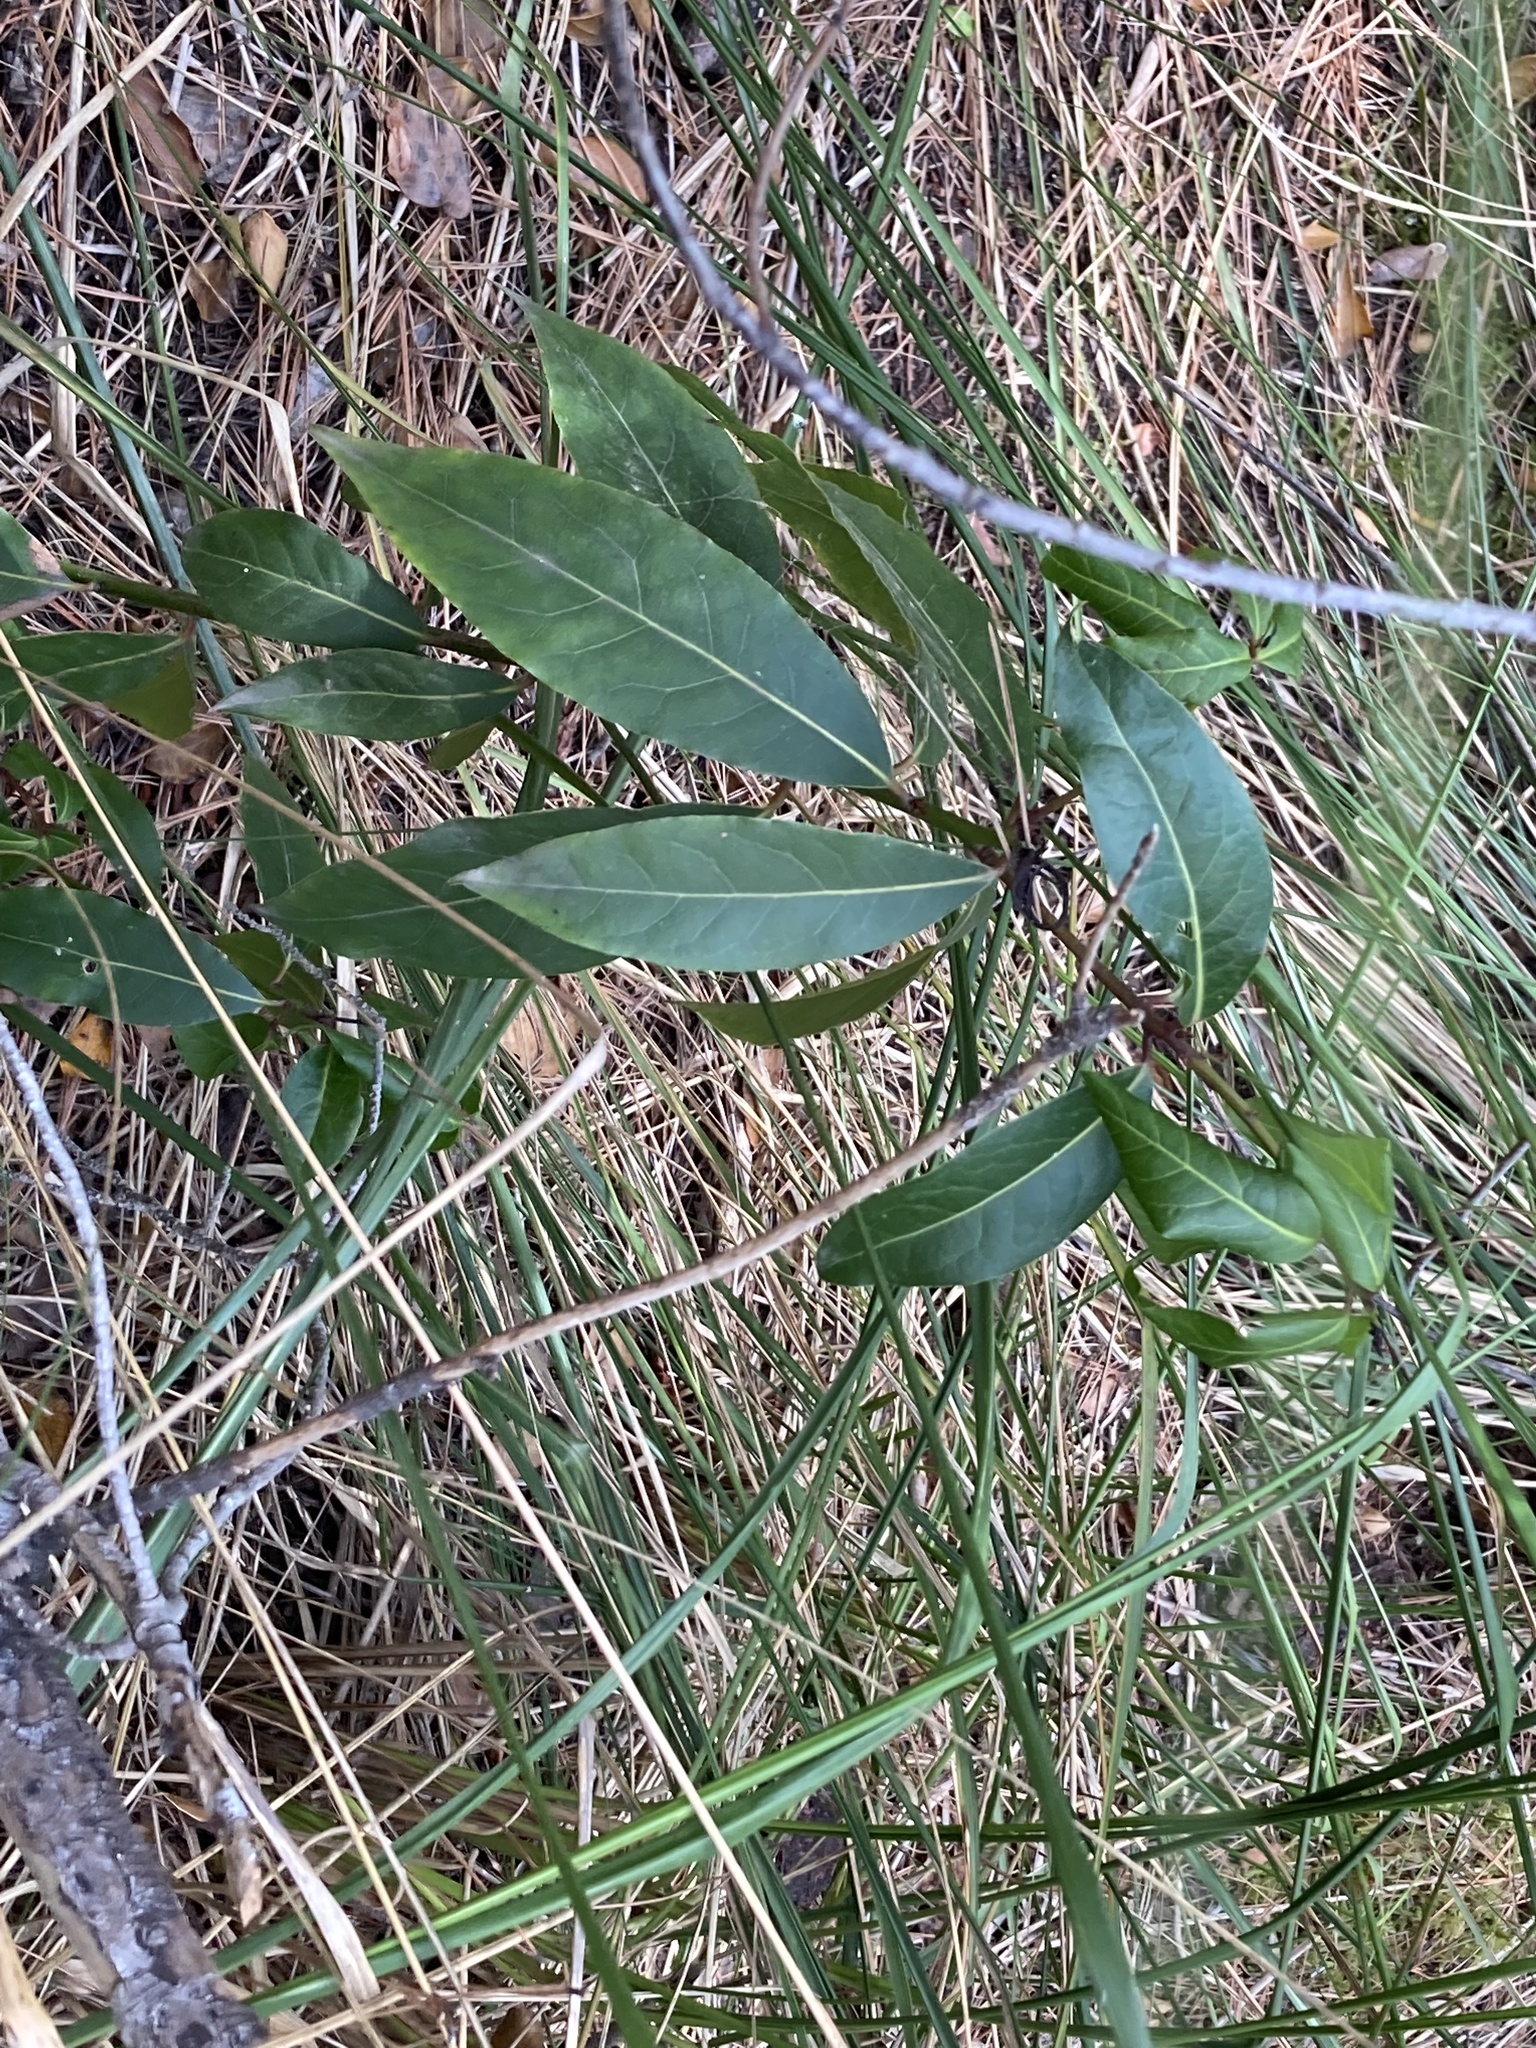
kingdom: Plantae
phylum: Tracheophyta
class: Magnoliopsida
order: Laurales
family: Lauraceae
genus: Laurus
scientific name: Laurus nobilis
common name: Bay
